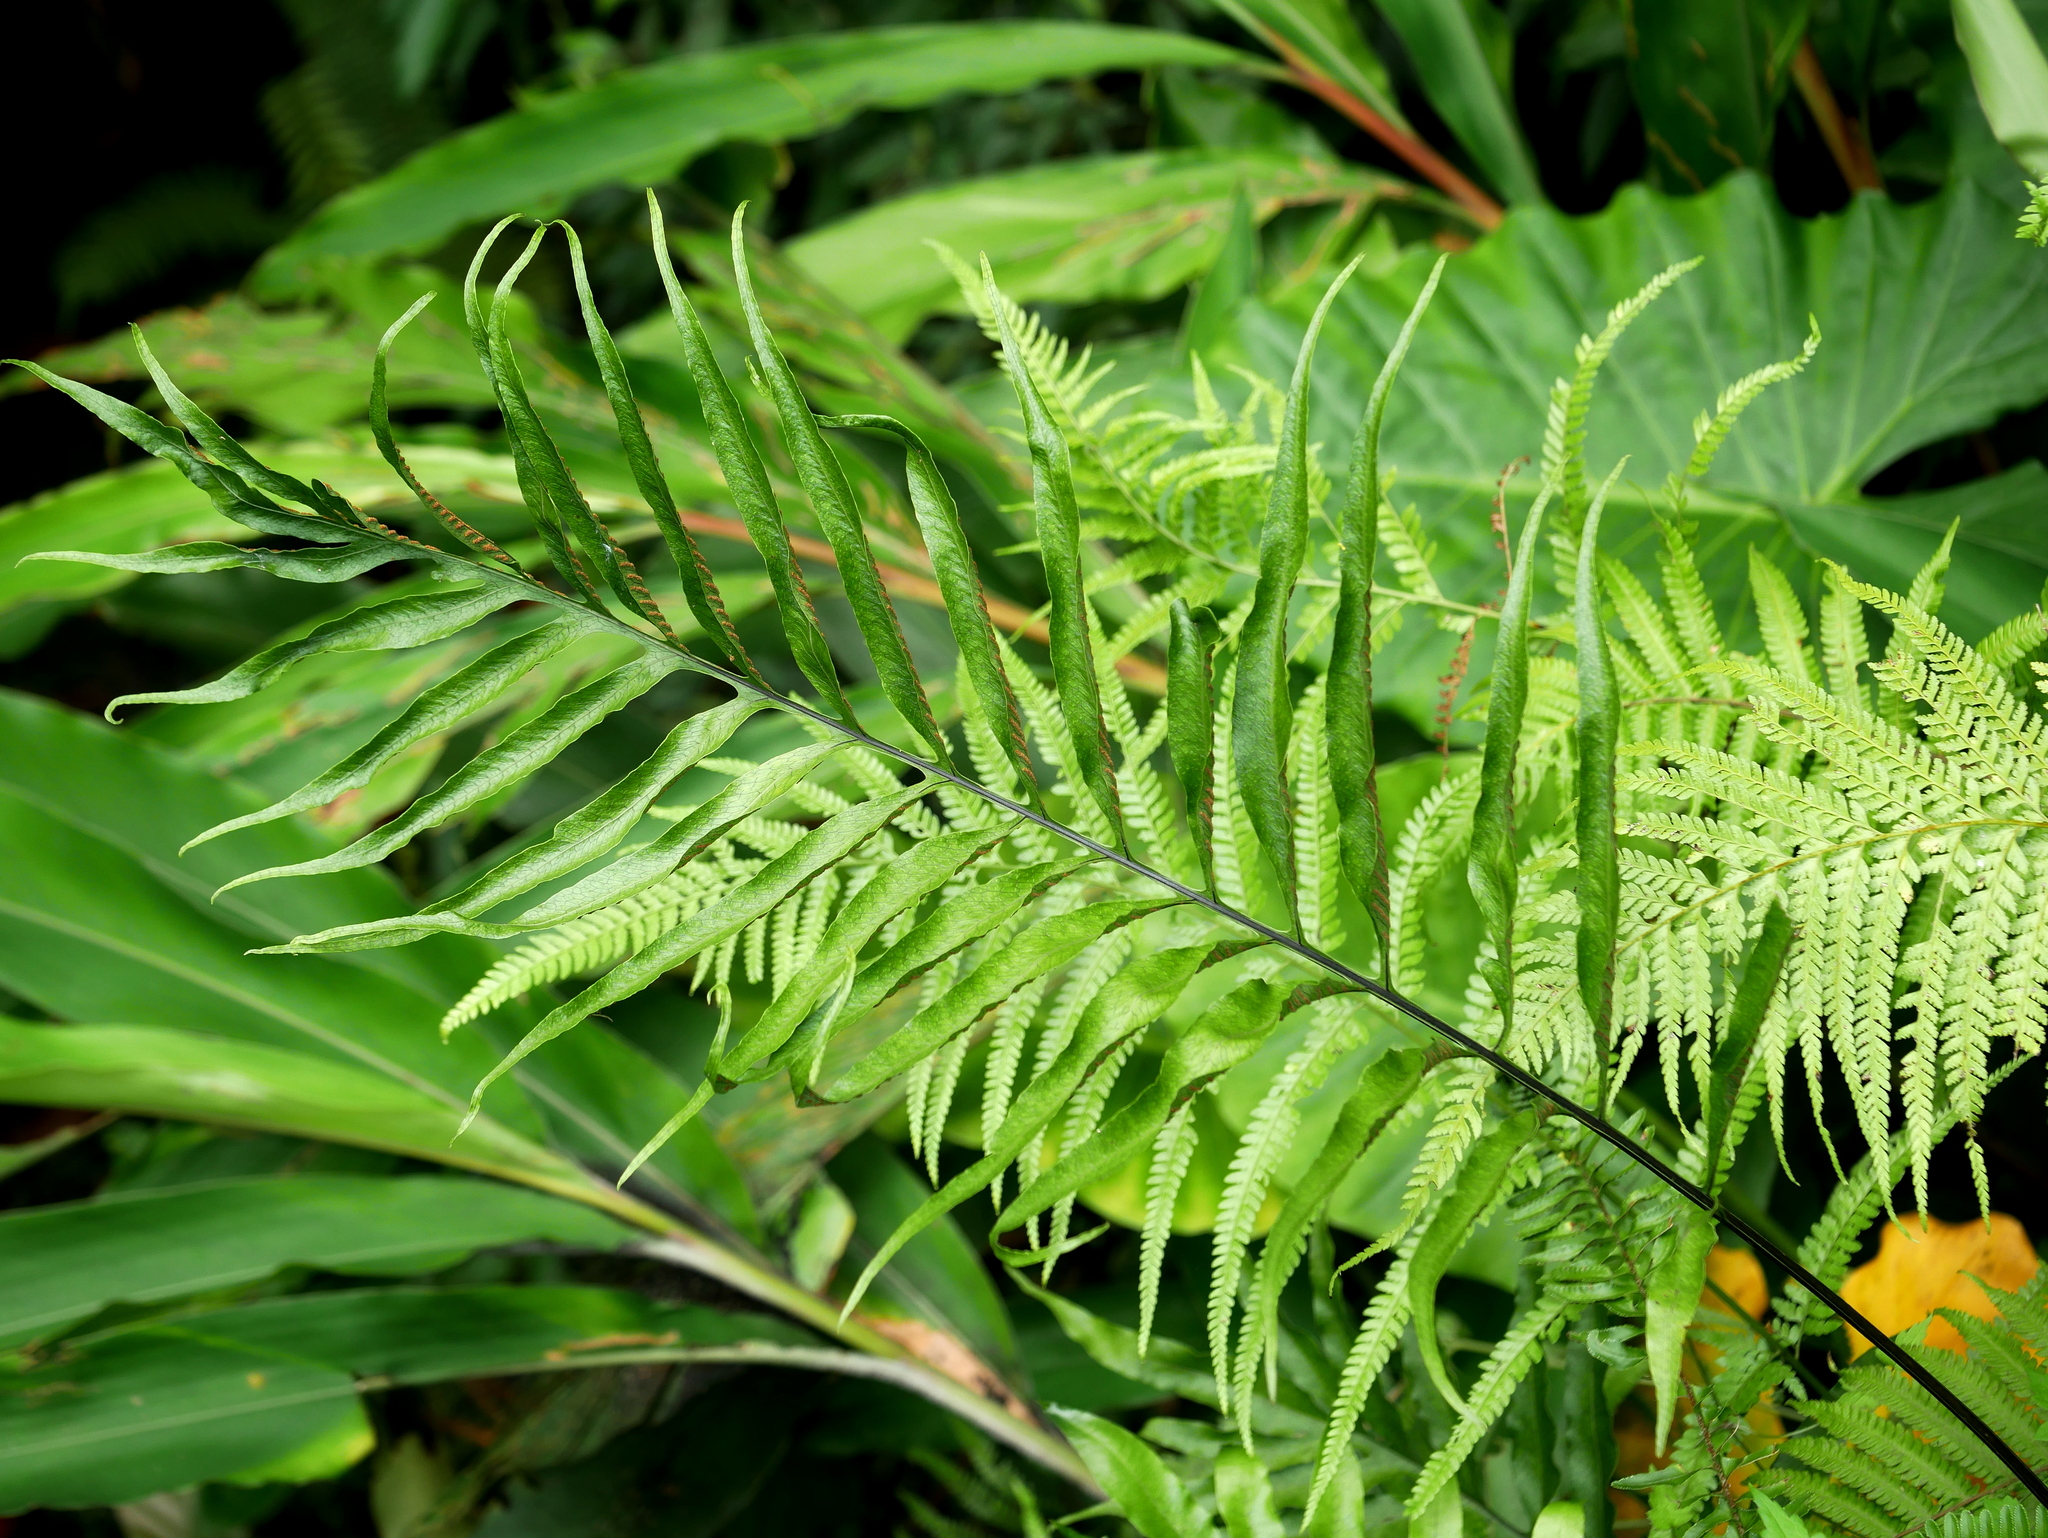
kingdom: Plantae
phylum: Tracheophyta
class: Polypodiopsida
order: Polypodiales
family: Polypodiaceae
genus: Leptochilus
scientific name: Leptochilus ellipticus
